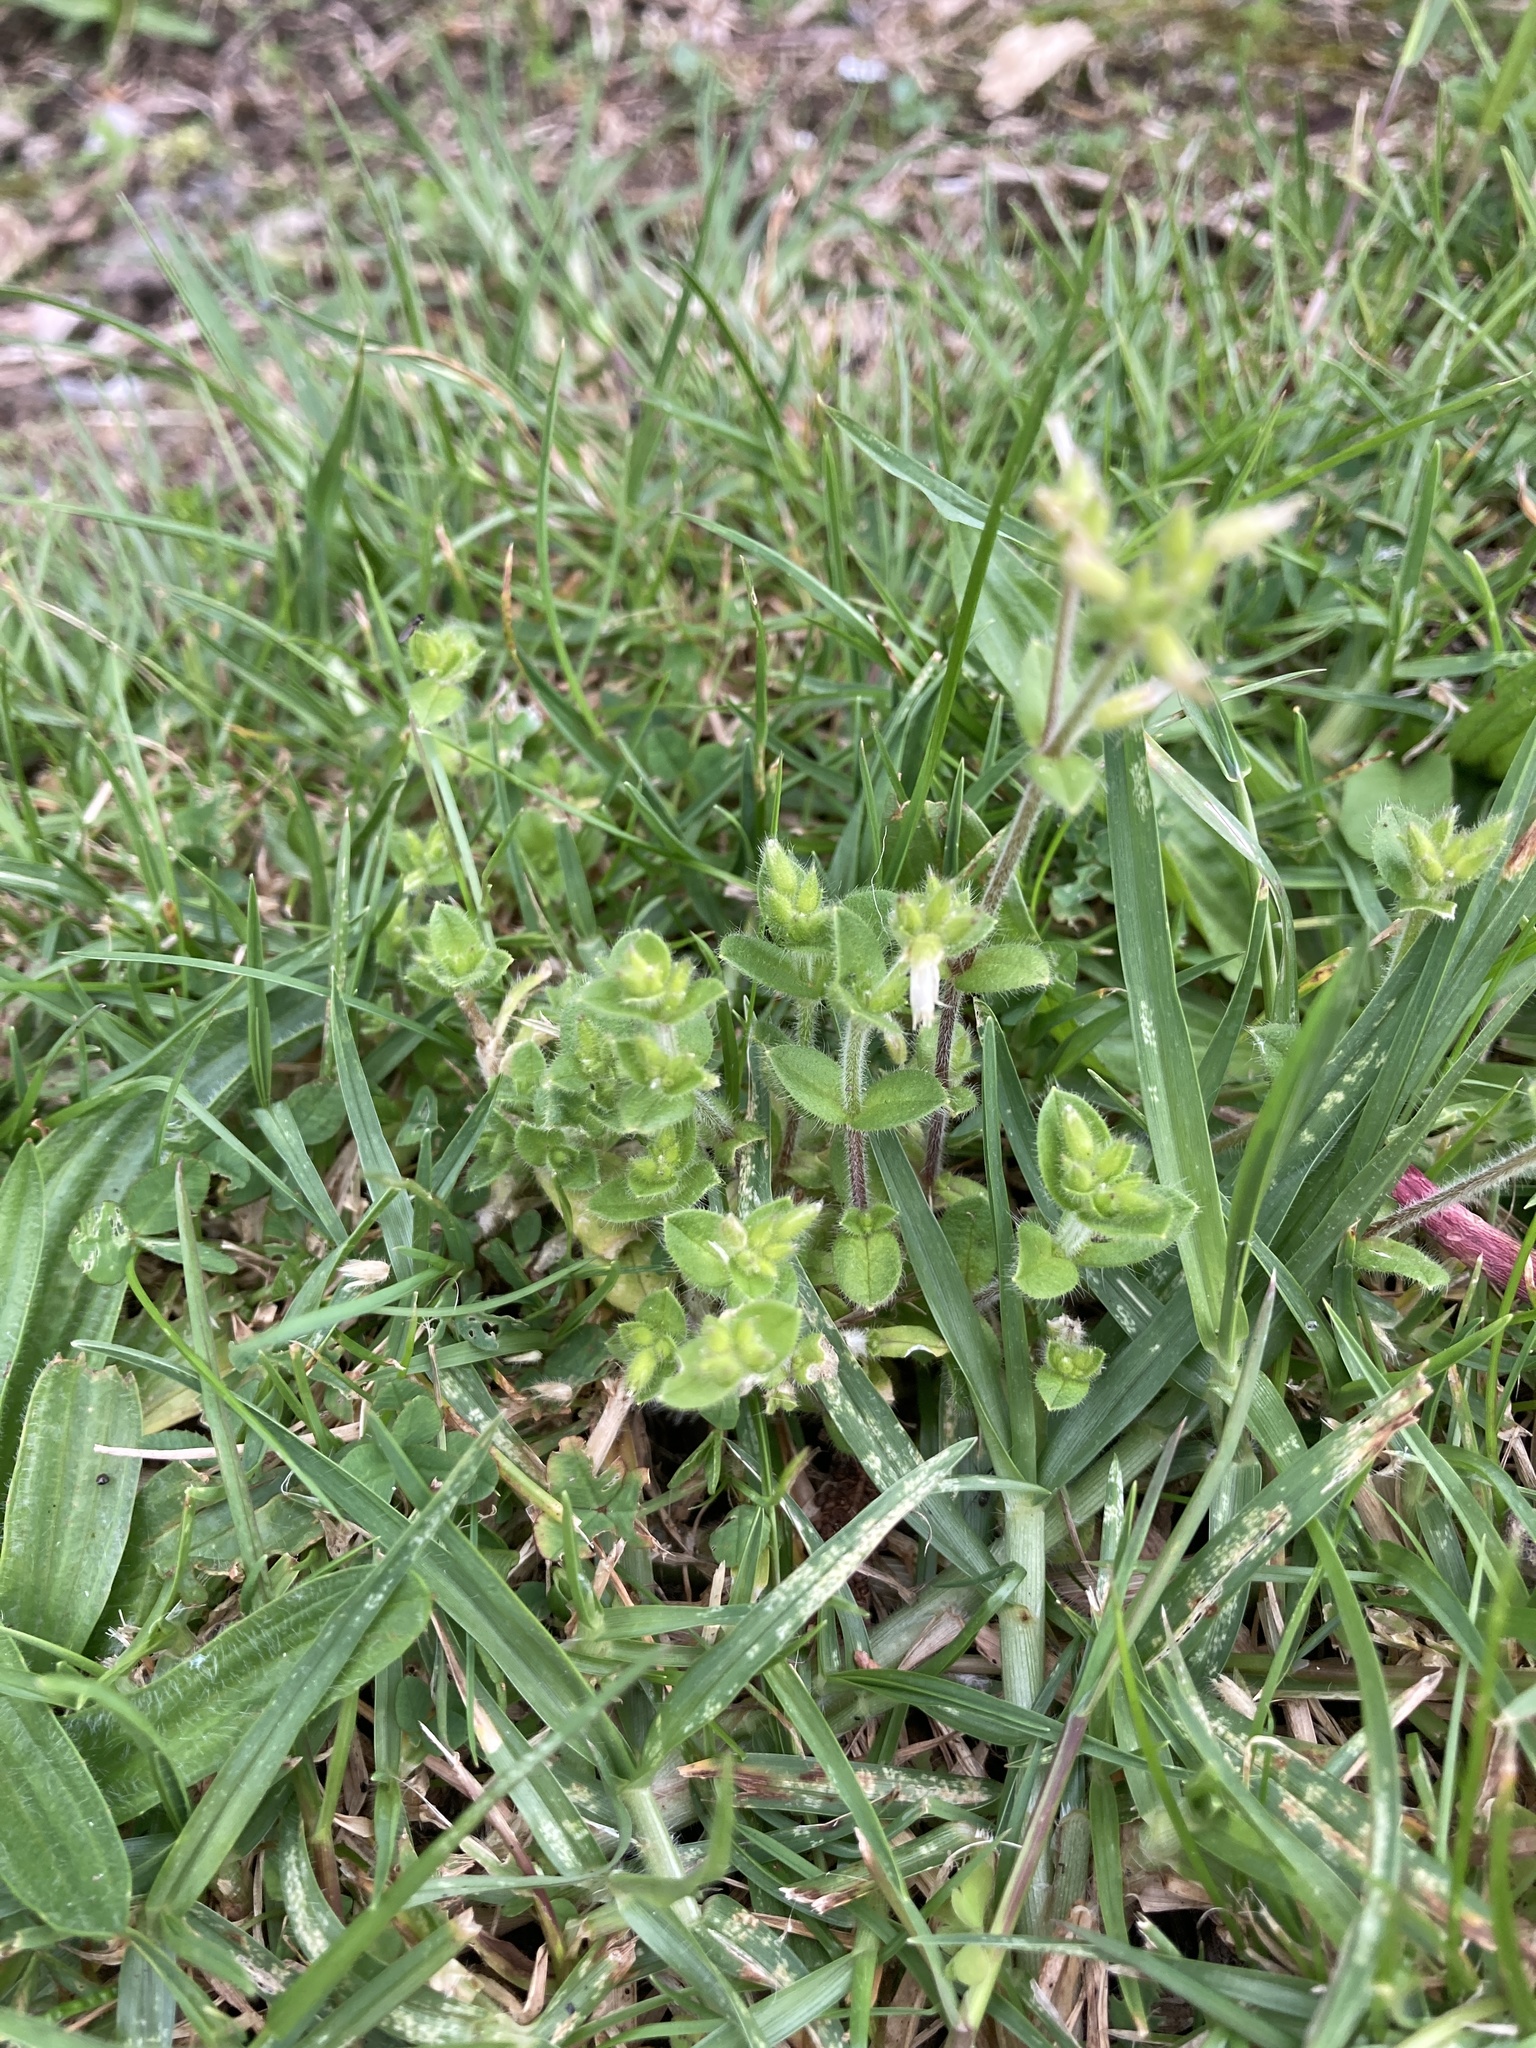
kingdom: Plantae
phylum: Tracheophyta
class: Magnoliopsida
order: Caryophyllales
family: Caryophyllaceae
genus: Cerastium
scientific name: Cerastium glomeratum
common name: Sticky chickweed
